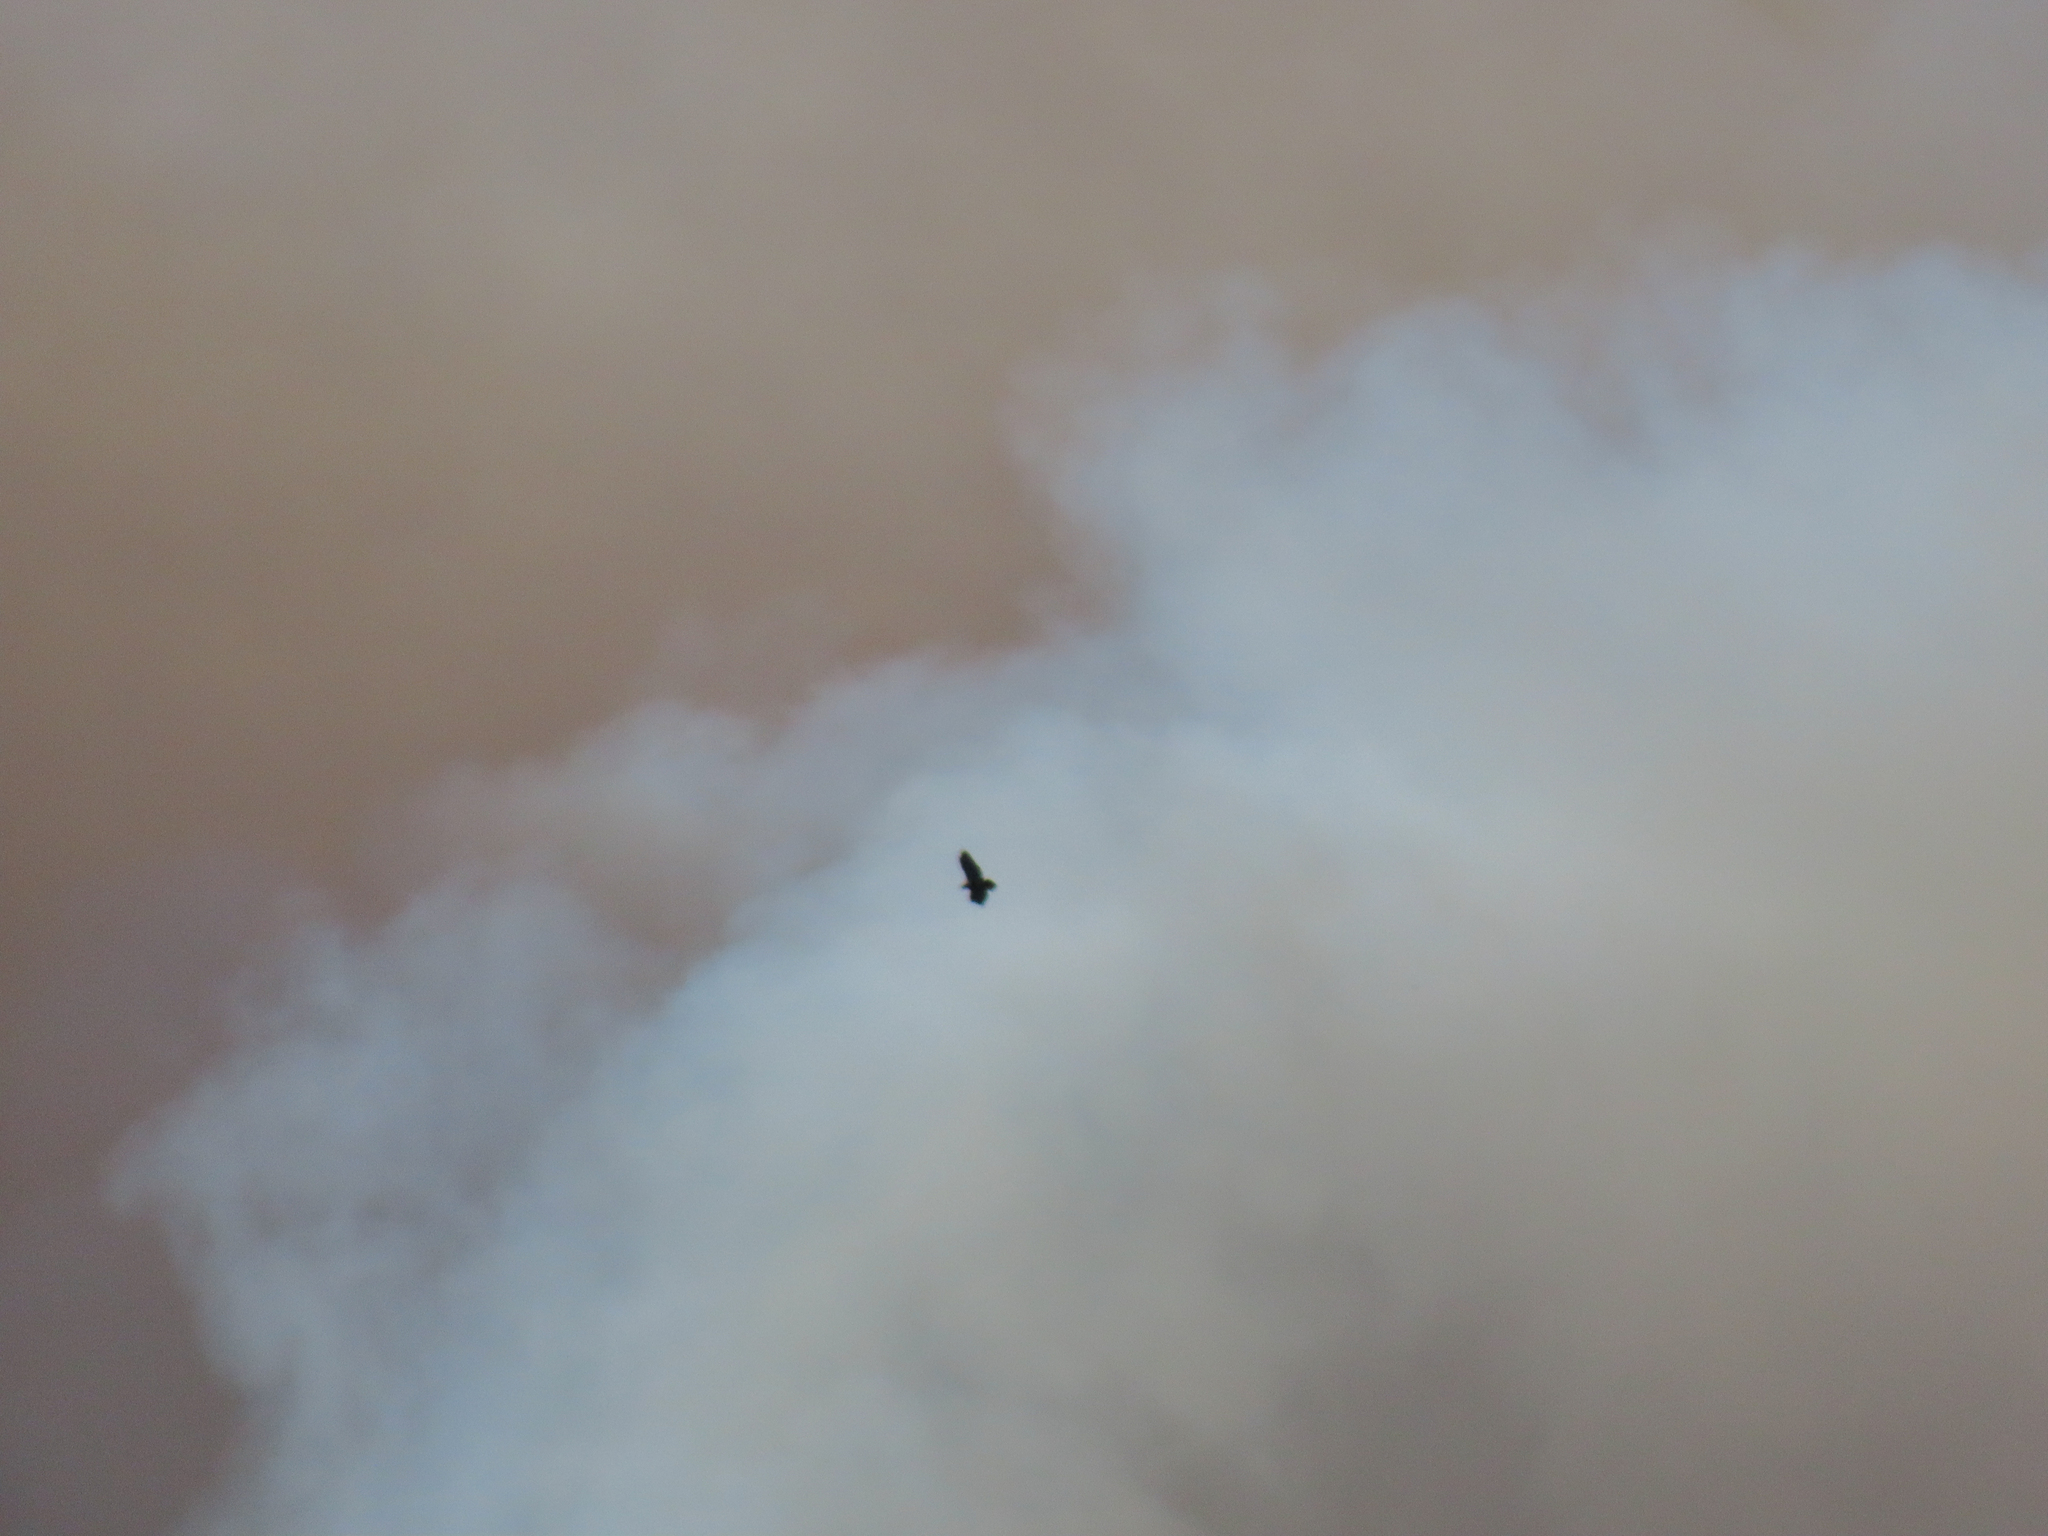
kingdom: Animalia
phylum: Chordata
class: Aves
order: Accipitriformes
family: Accipitridae
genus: Buteo
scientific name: Buteo jamaicensis
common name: Red-tailed hawk
